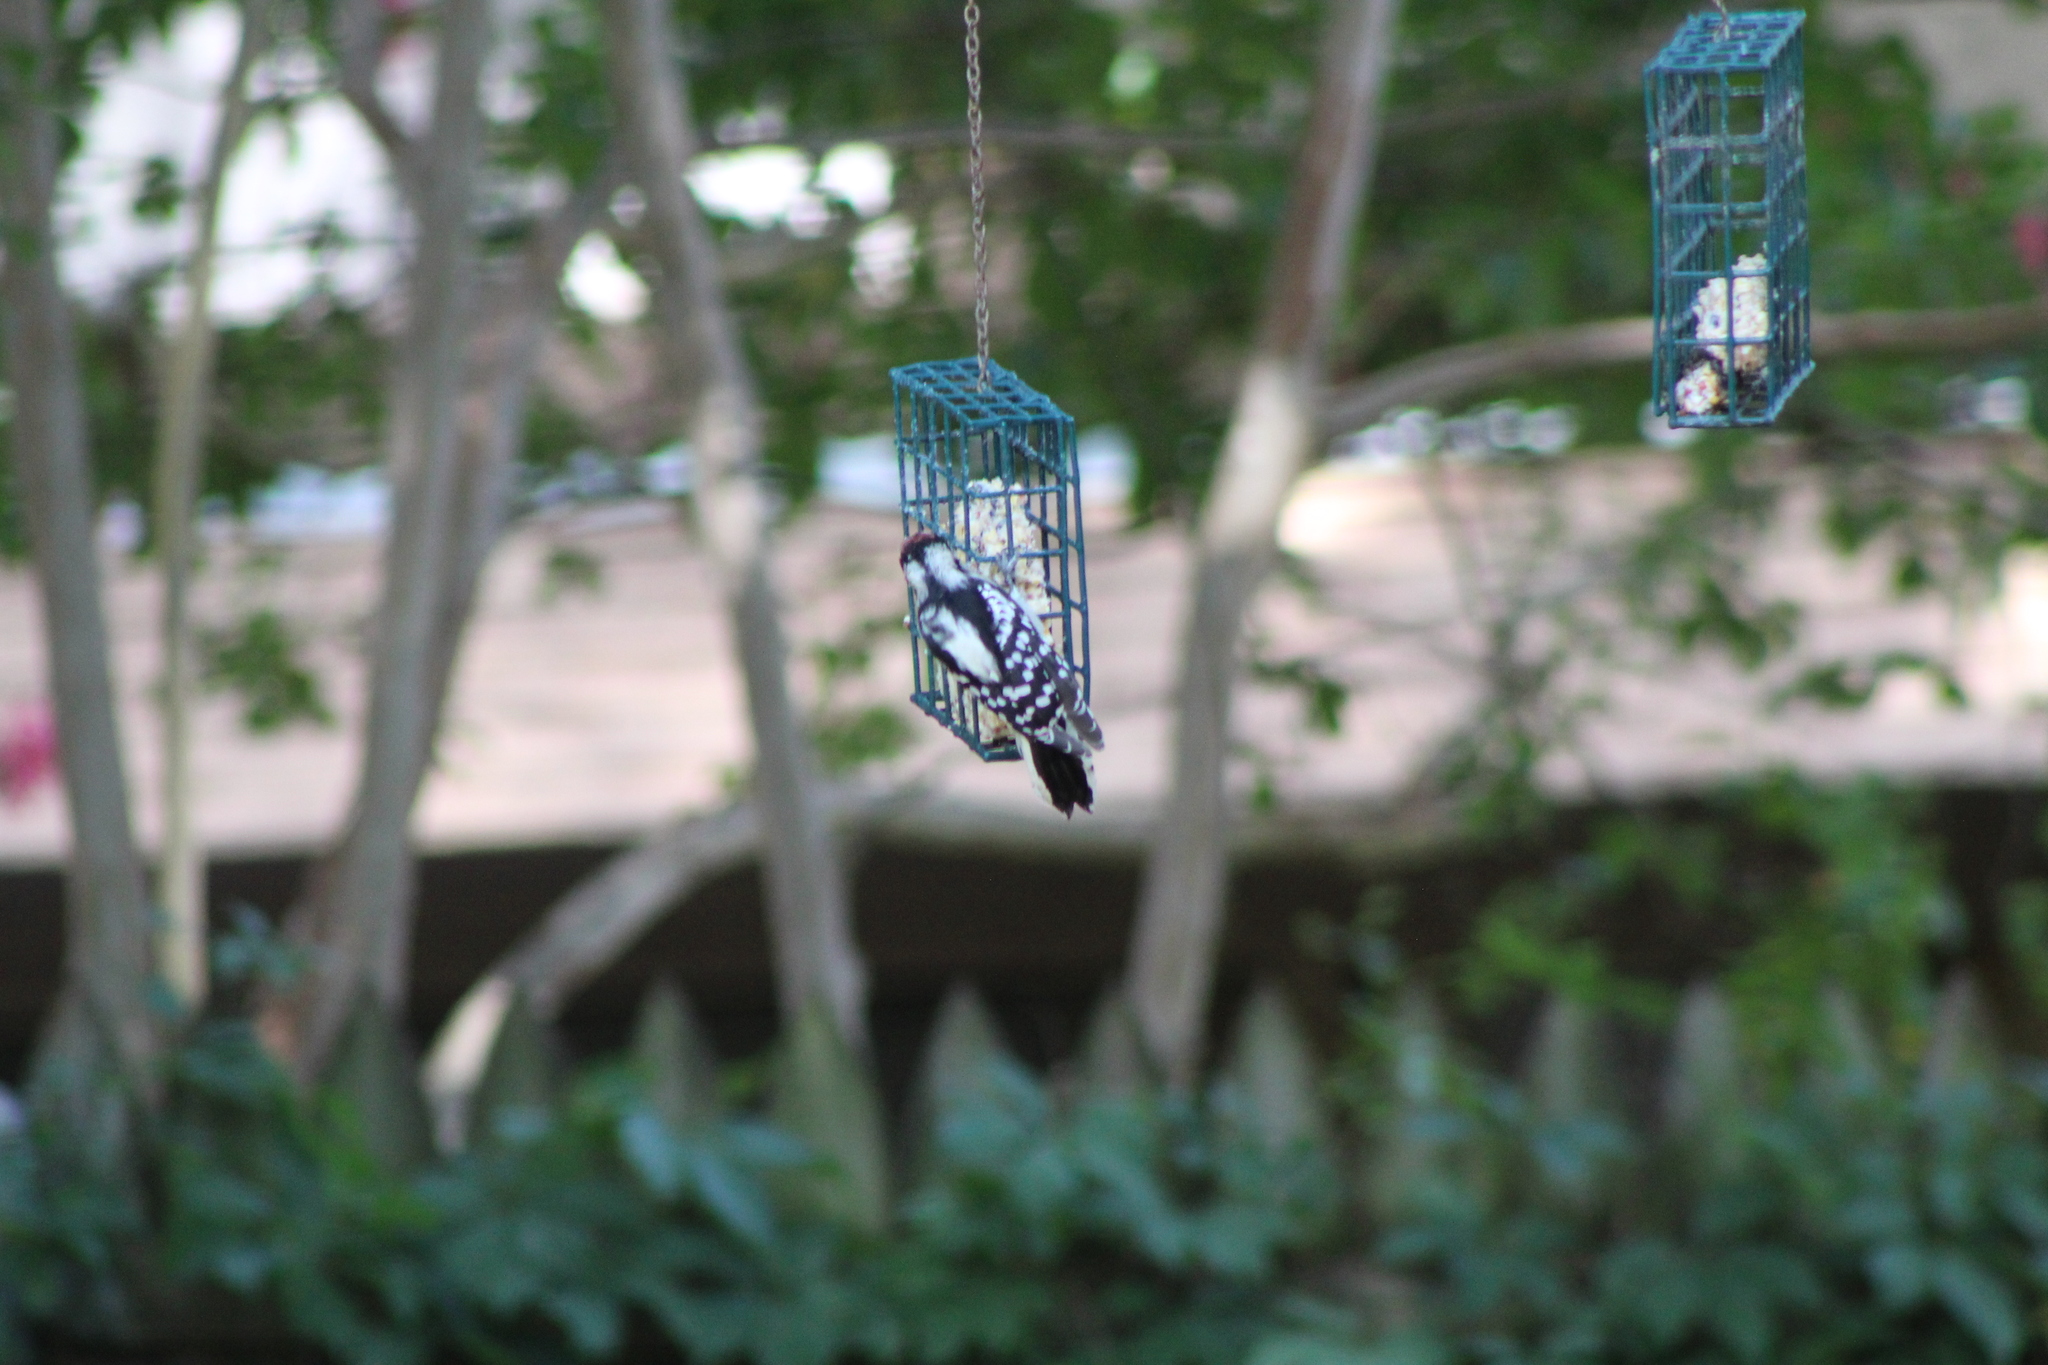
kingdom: Animalia
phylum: Chordata
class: Aves
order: Piciformes
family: Picidae
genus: Dryobates
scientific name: Dryobates pubescens
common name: Downy woodpecker
